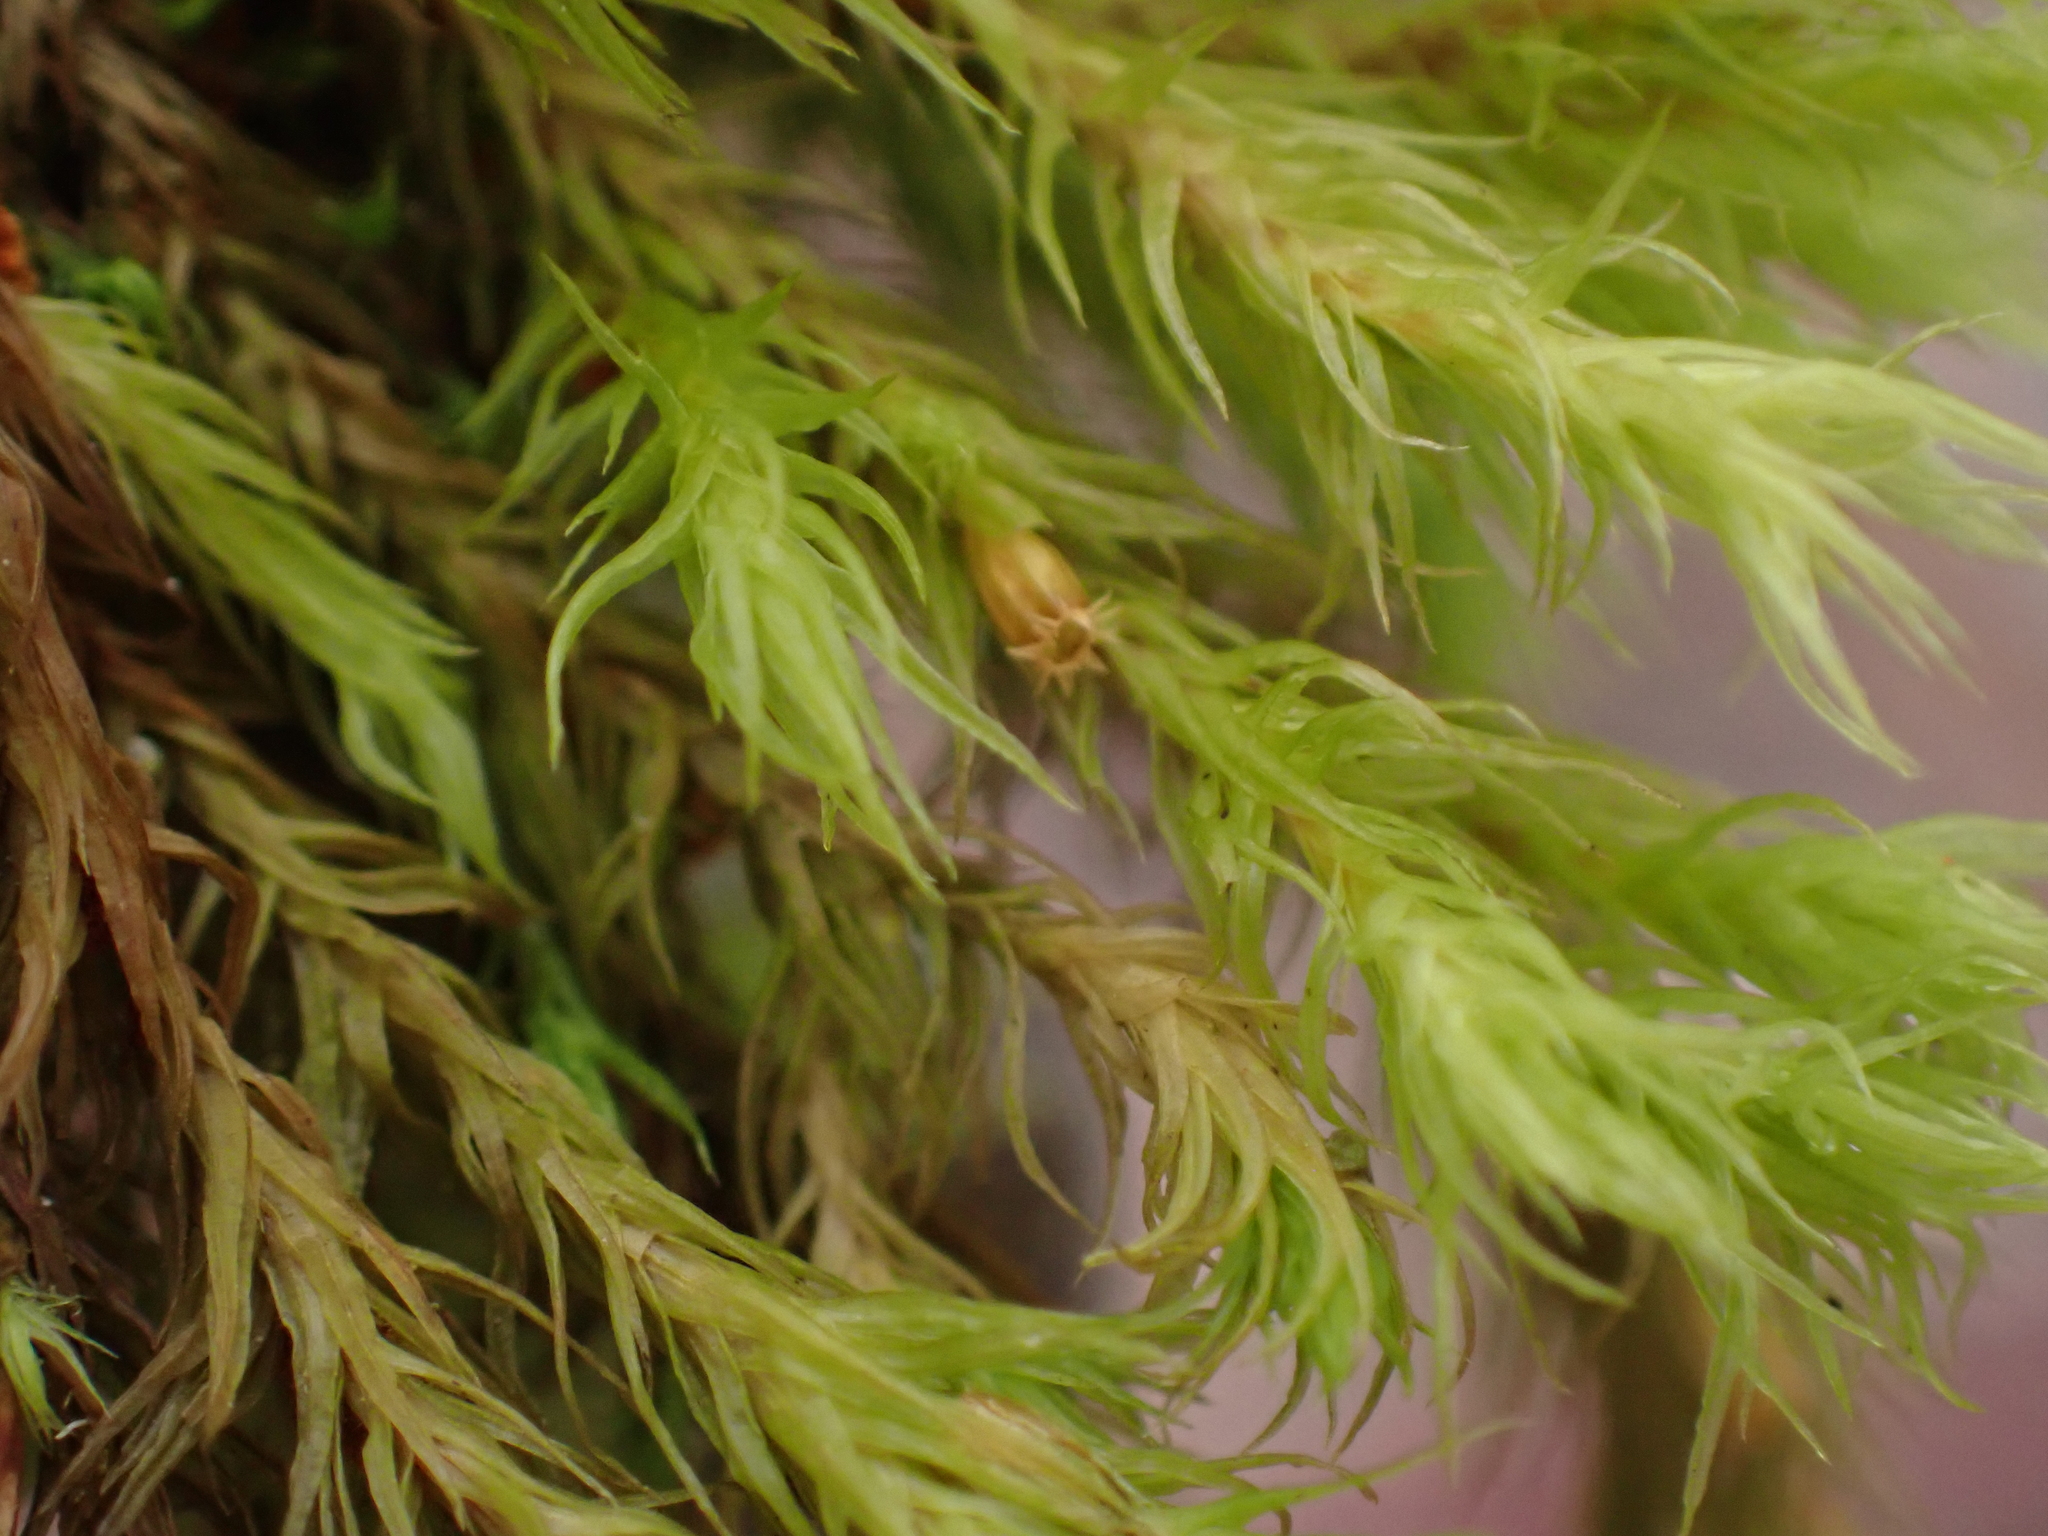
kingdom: Plantae
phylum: Bryophyta
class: Bryopsida
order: Orthotrichales
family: Orthotrichaceae
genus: Pulvigera
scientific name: Pulvigera papillosa
